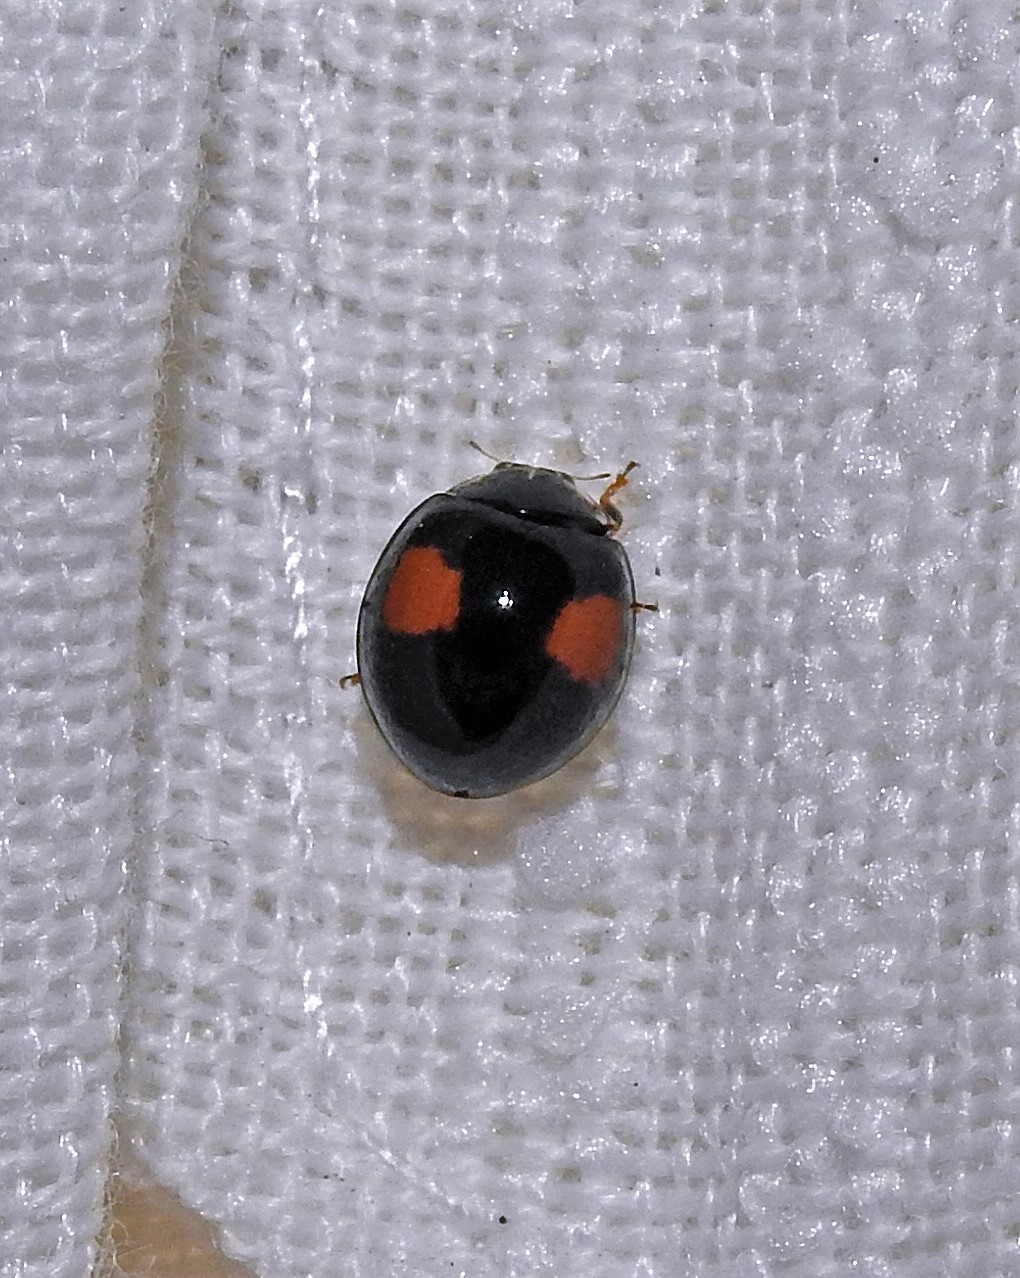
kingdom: Animalia
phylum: Arthropoda
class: Insecta
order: Coleoptera
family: Coccinellidae
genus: Olla
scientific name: Olla v-nigrum
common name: Ashy gray lady beetle
